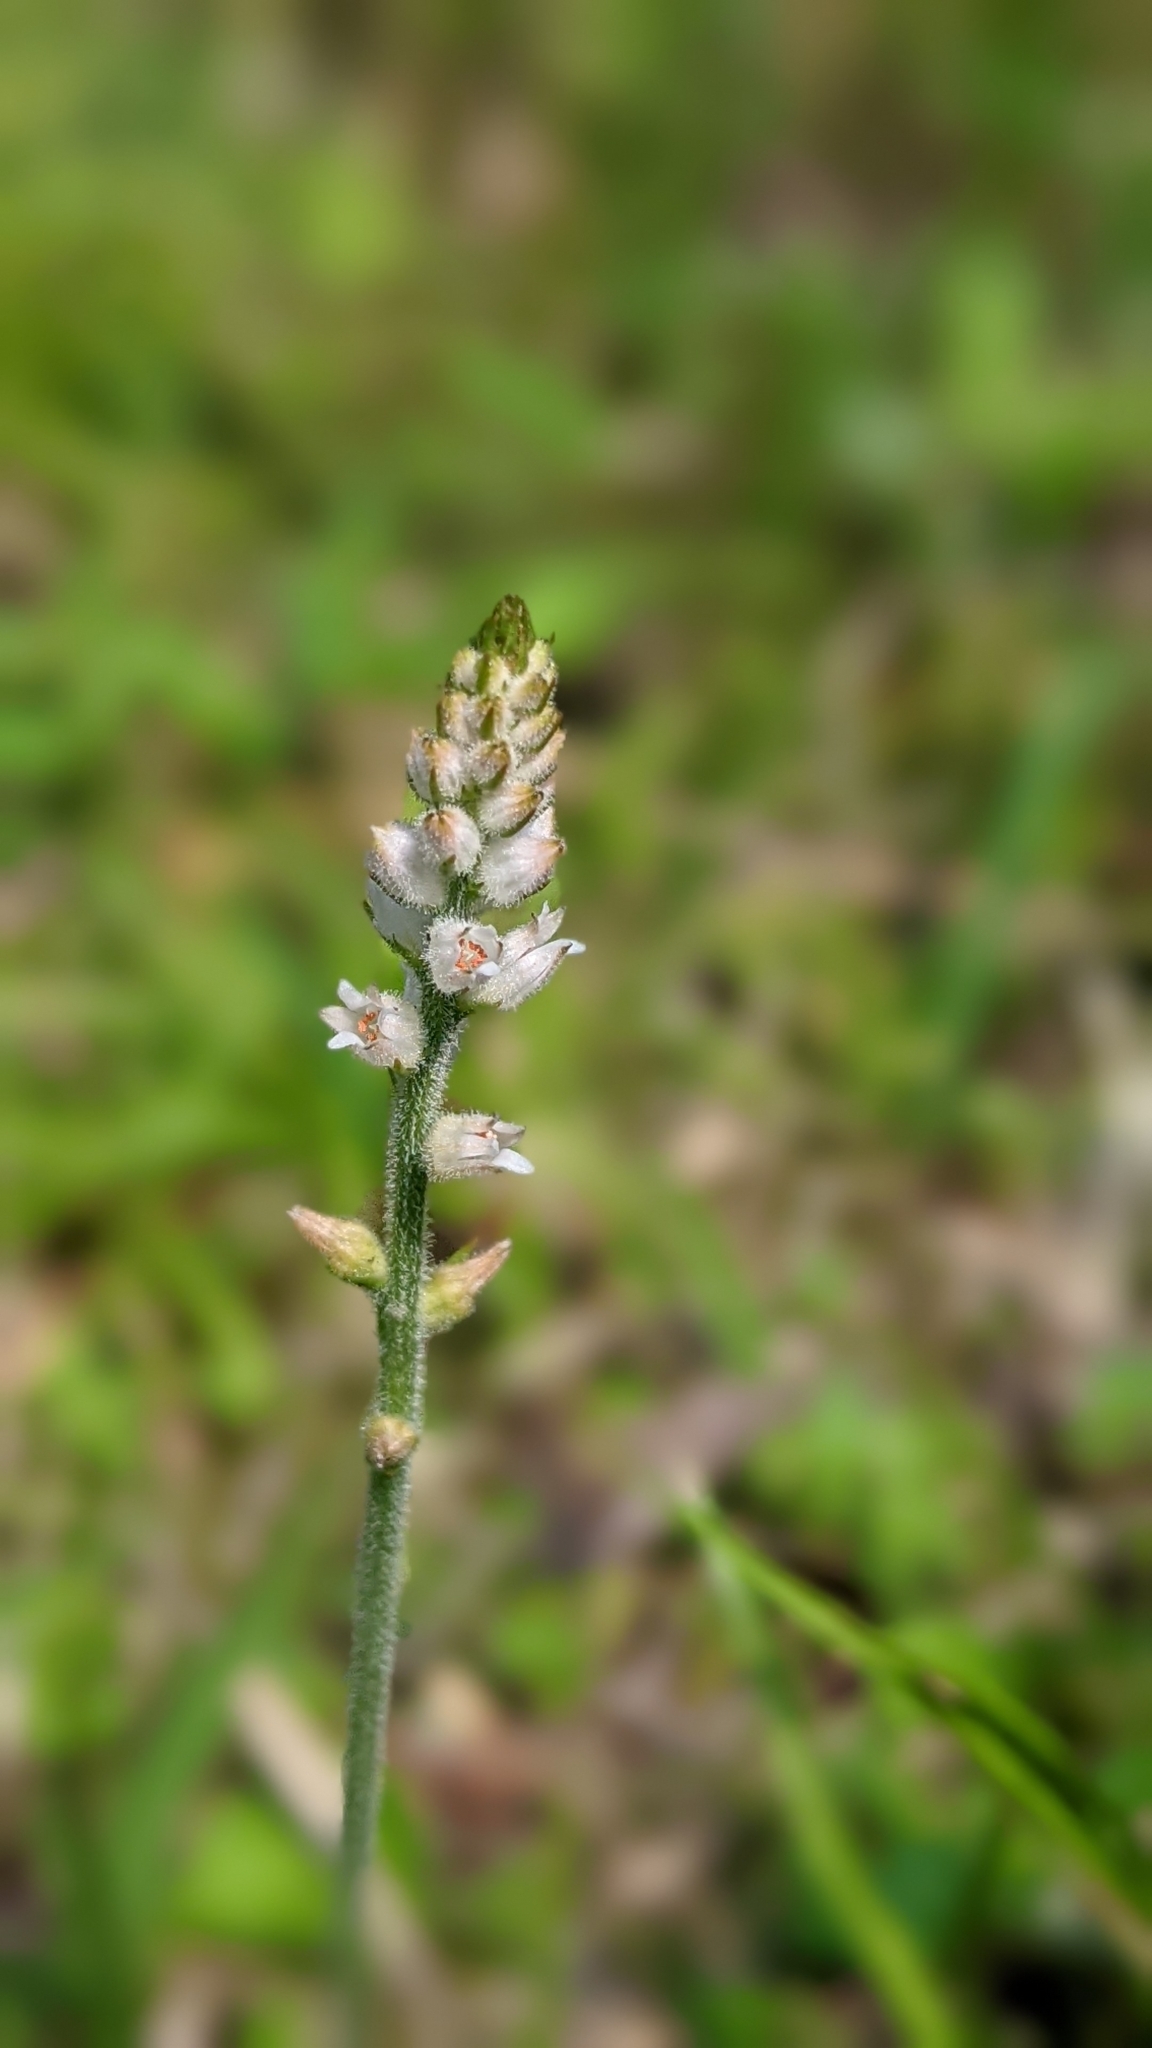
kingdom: Plantae
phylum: Tracheophyta
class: Liliopsida
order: Dioscoreales
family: Nartheciaceae
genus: Aletris
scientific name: Aletris spicata
